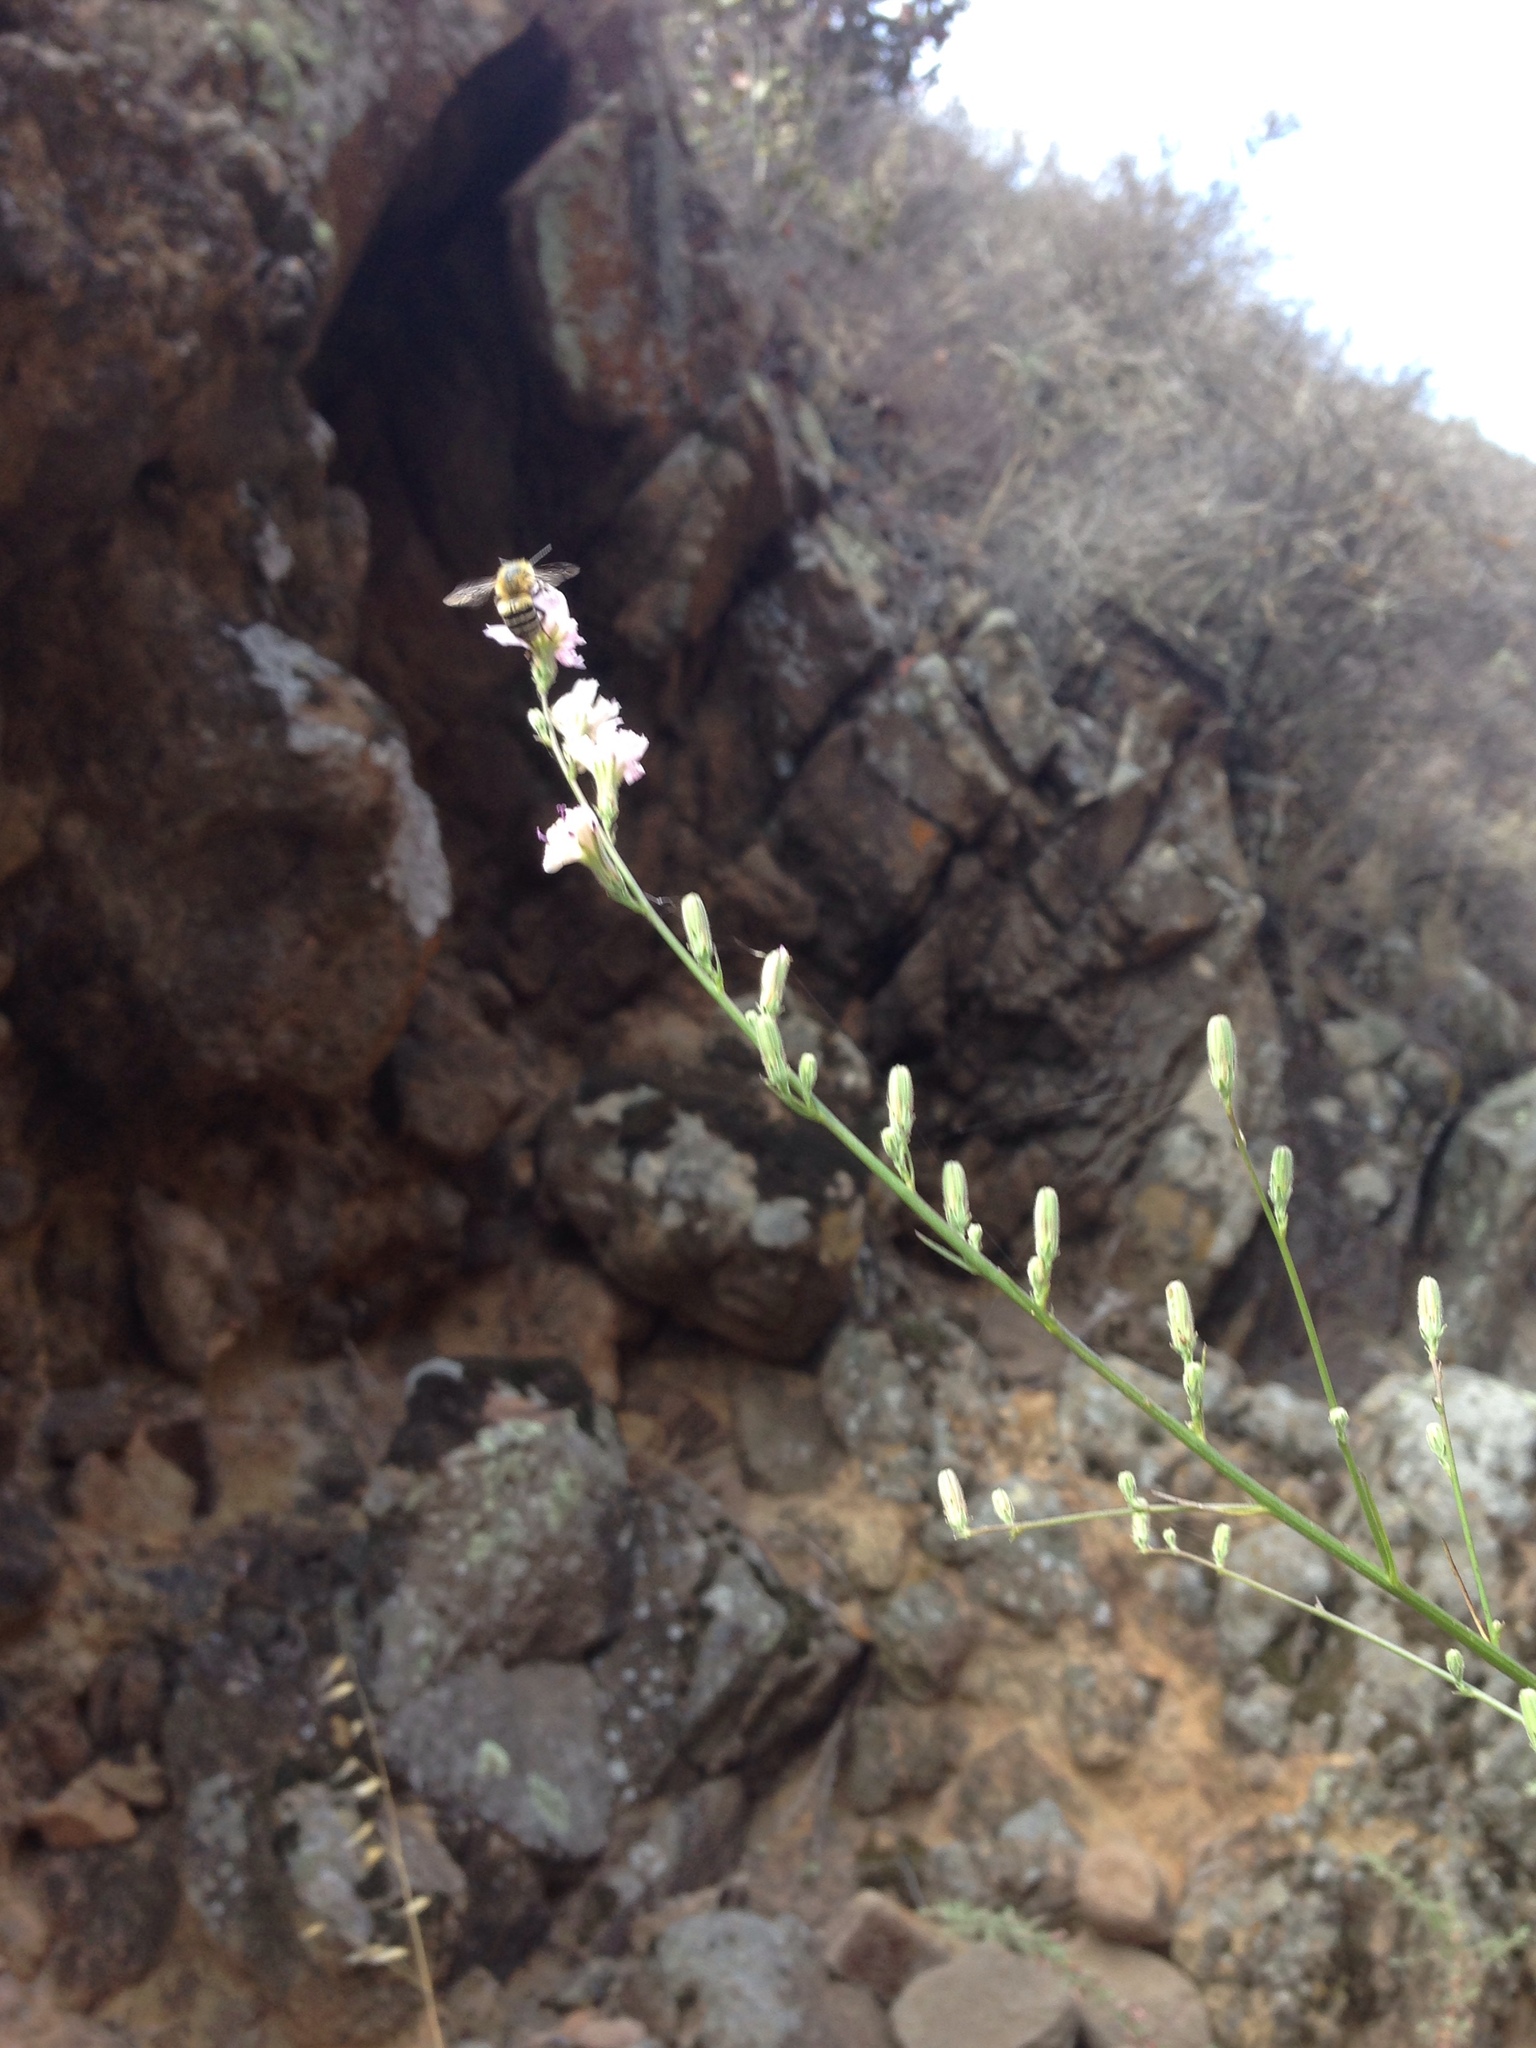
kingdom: Animalia
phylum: Arthropoda
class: Insecta
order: Hymenoptera
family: Apidae
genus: Anthophora
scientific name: Anthophora urbana
